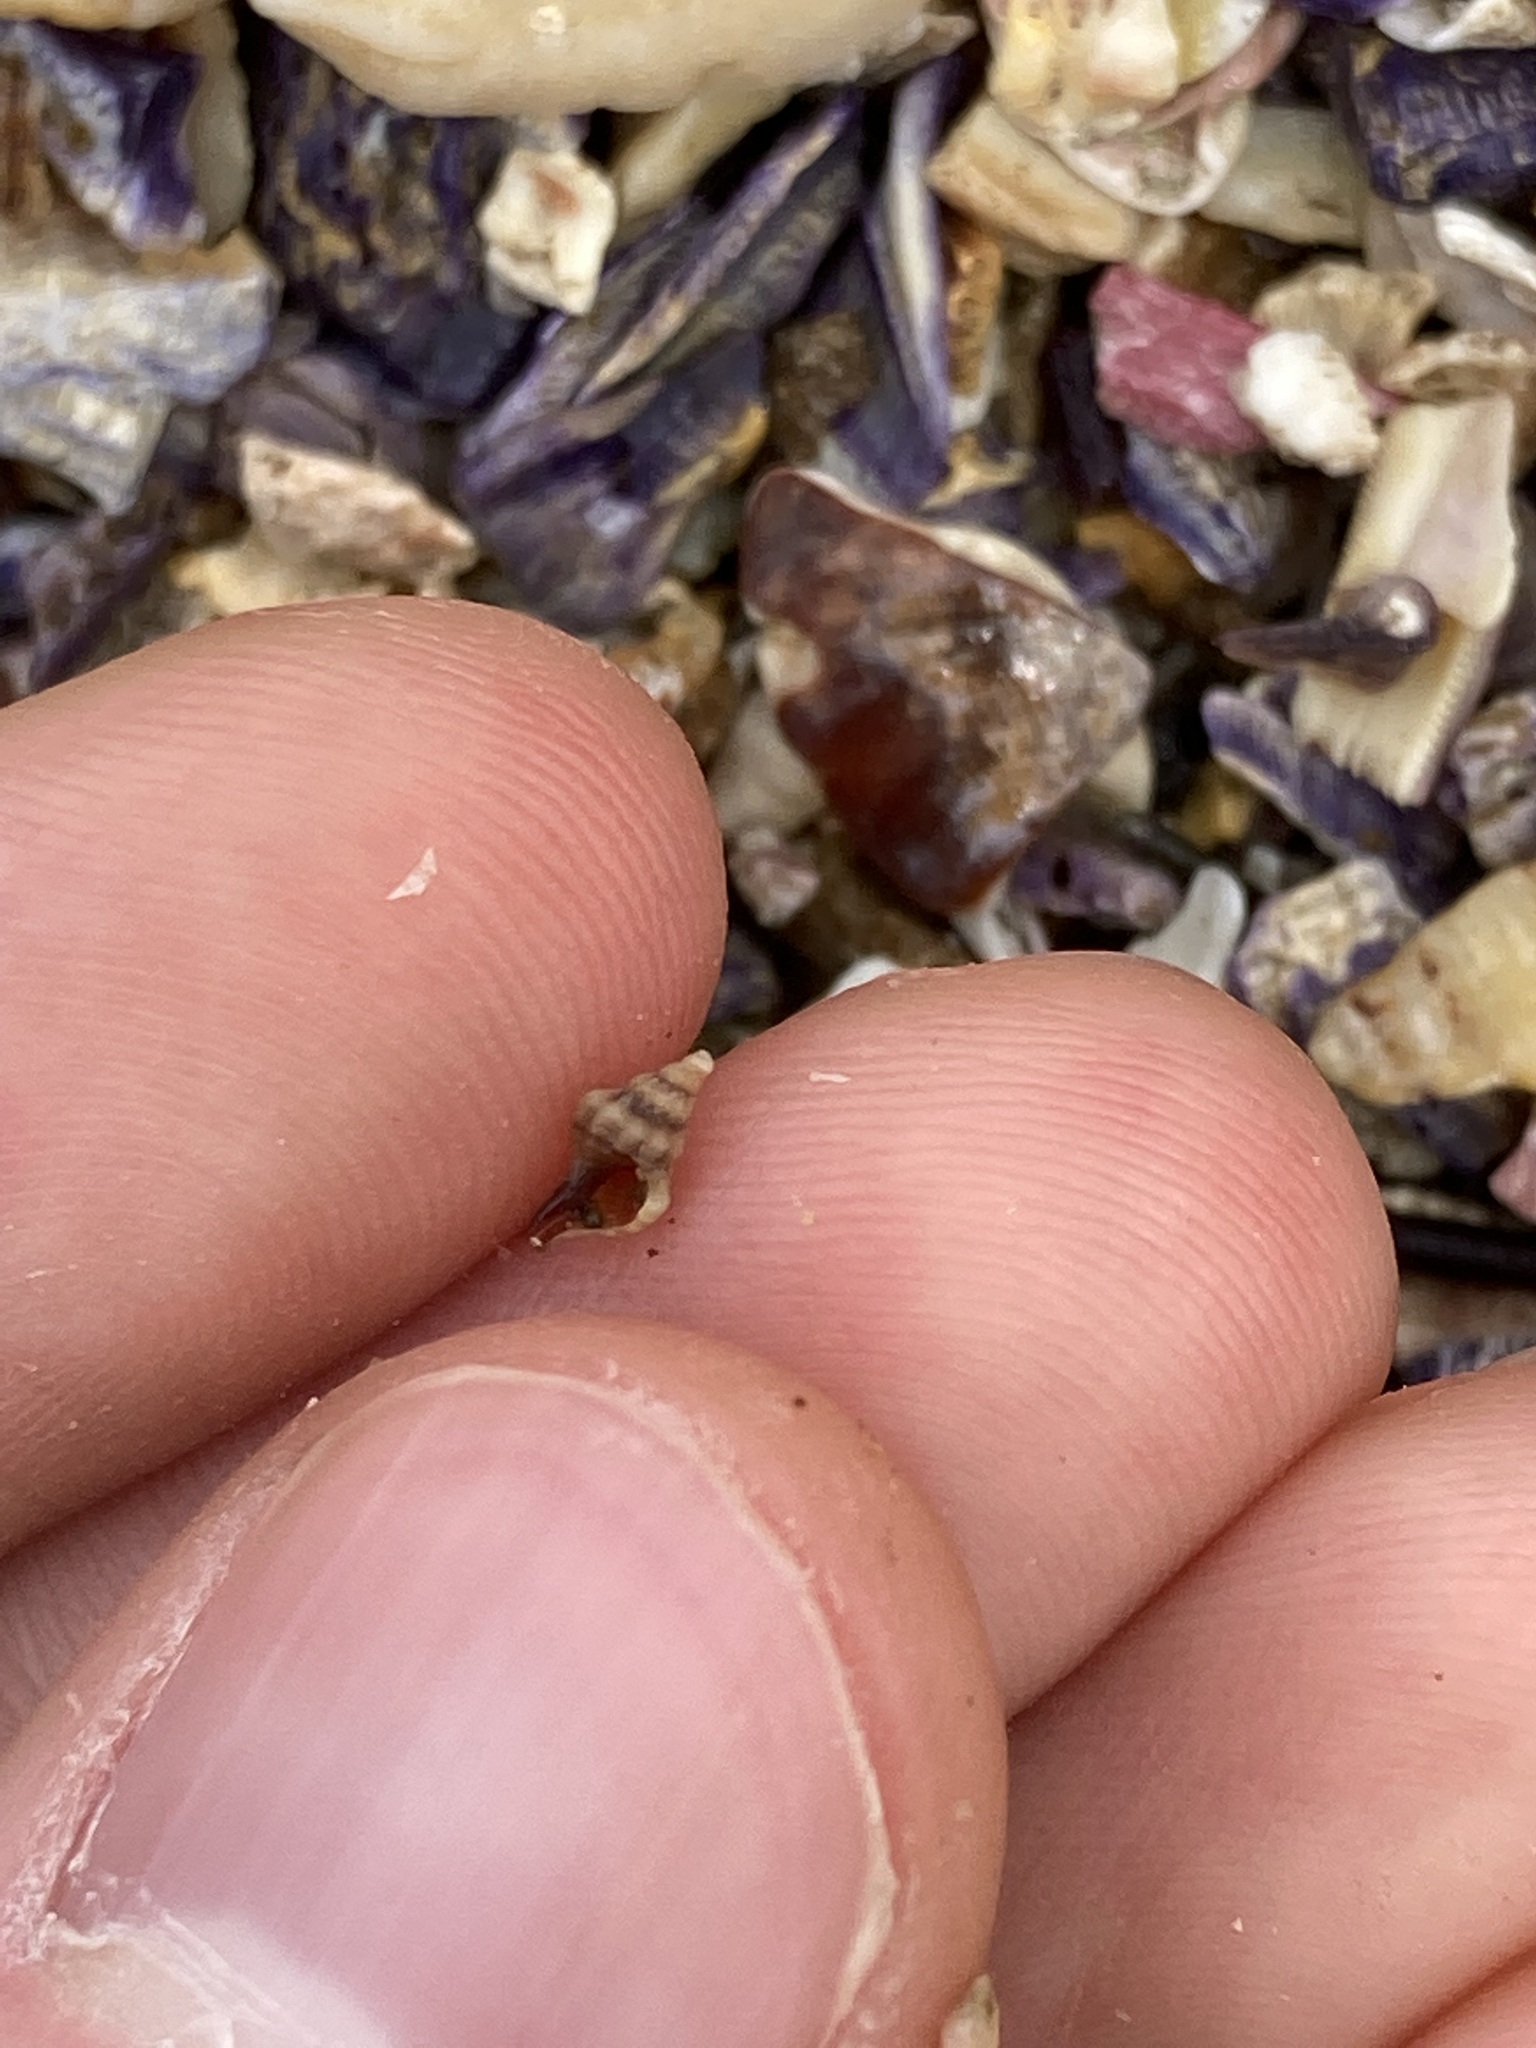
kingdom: Animalia
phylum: Mollusca
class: Gastropoda
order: Neogastropoda
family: Muricidae
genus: Bedeva
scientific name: Bedeva paivae
